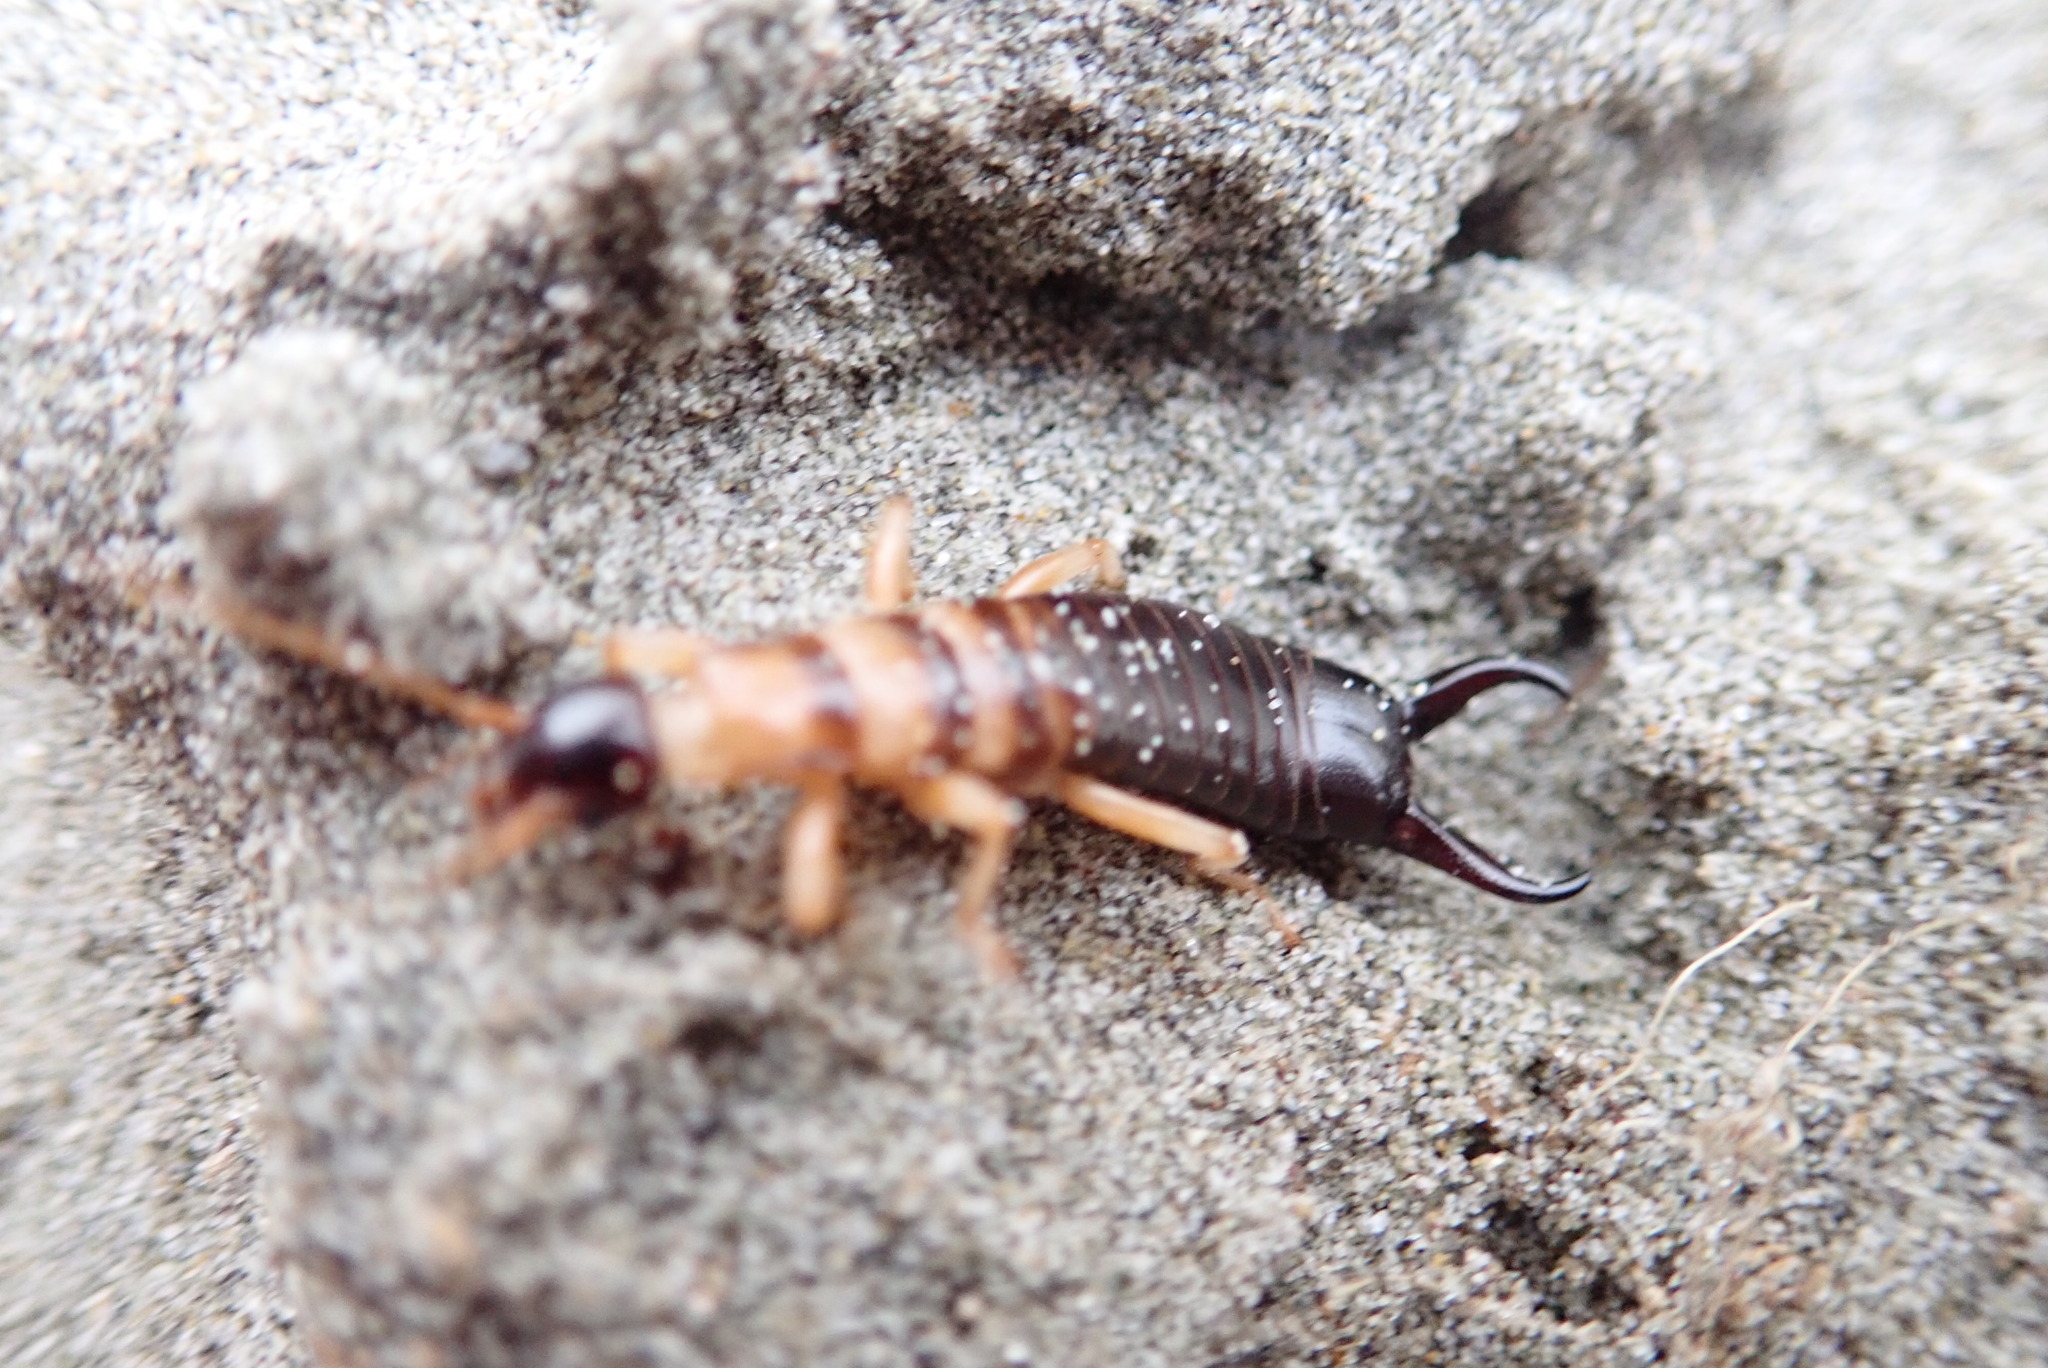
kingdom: Animalia
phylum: Arthropoda
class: Insecta
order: Dermaptera
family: Anisolabididae
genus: Anisolabis
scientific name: Anisolabis littorea
